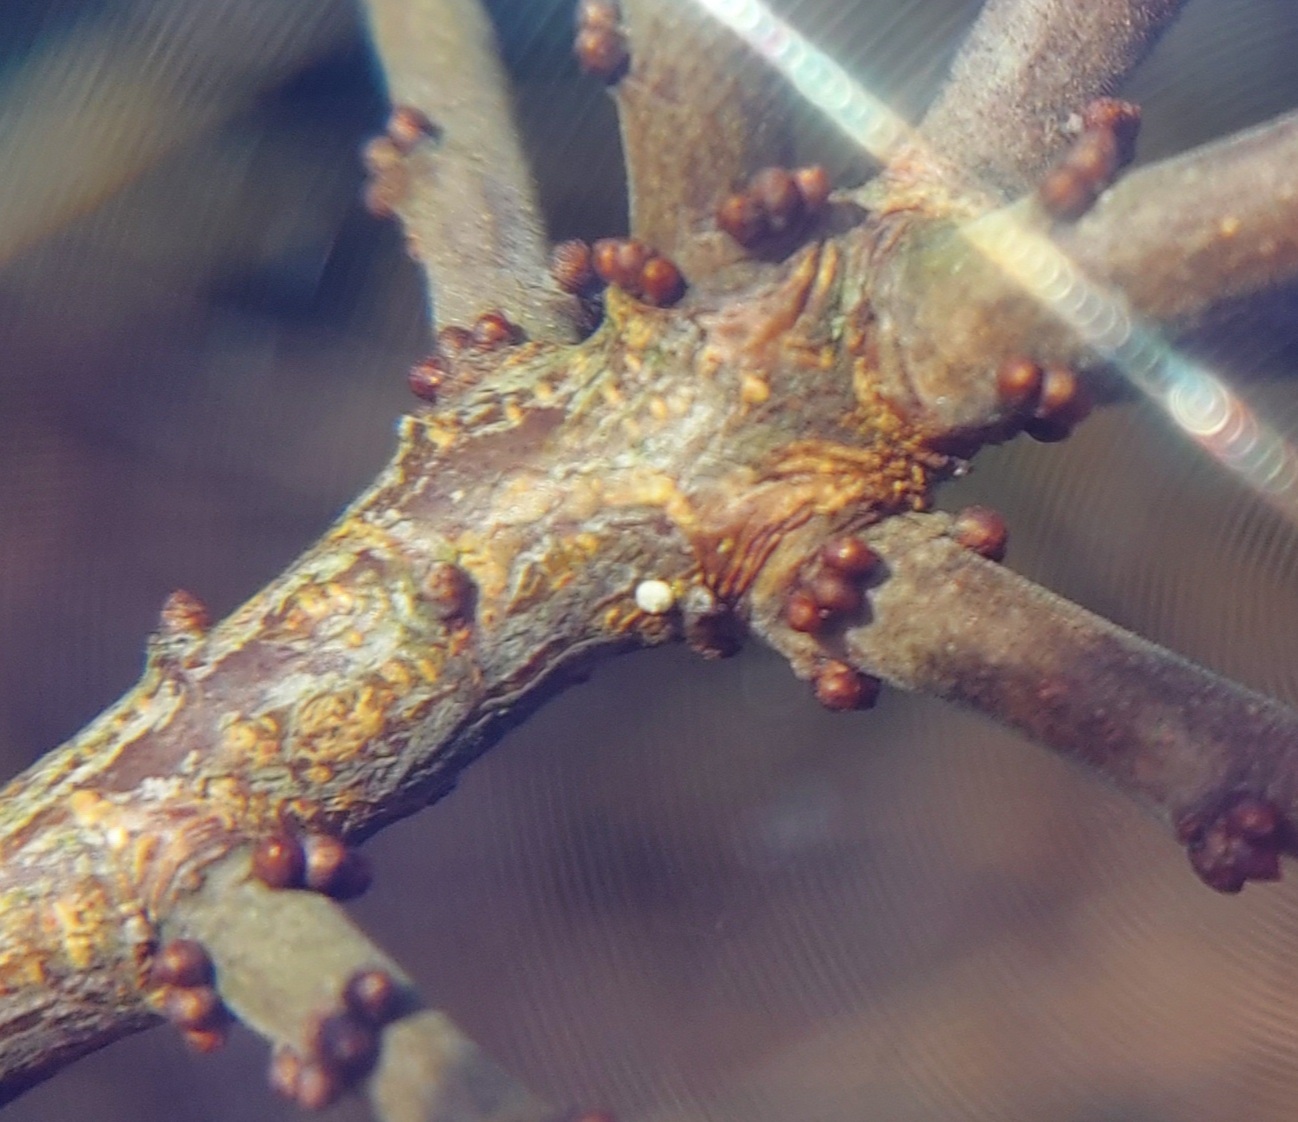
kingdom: Animalia
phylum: Arthropoda
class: Insecta
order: Lepidoptera
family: Lycaenidae
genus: Thecla
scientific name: Thecla betulae
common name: Brown hairstreak
